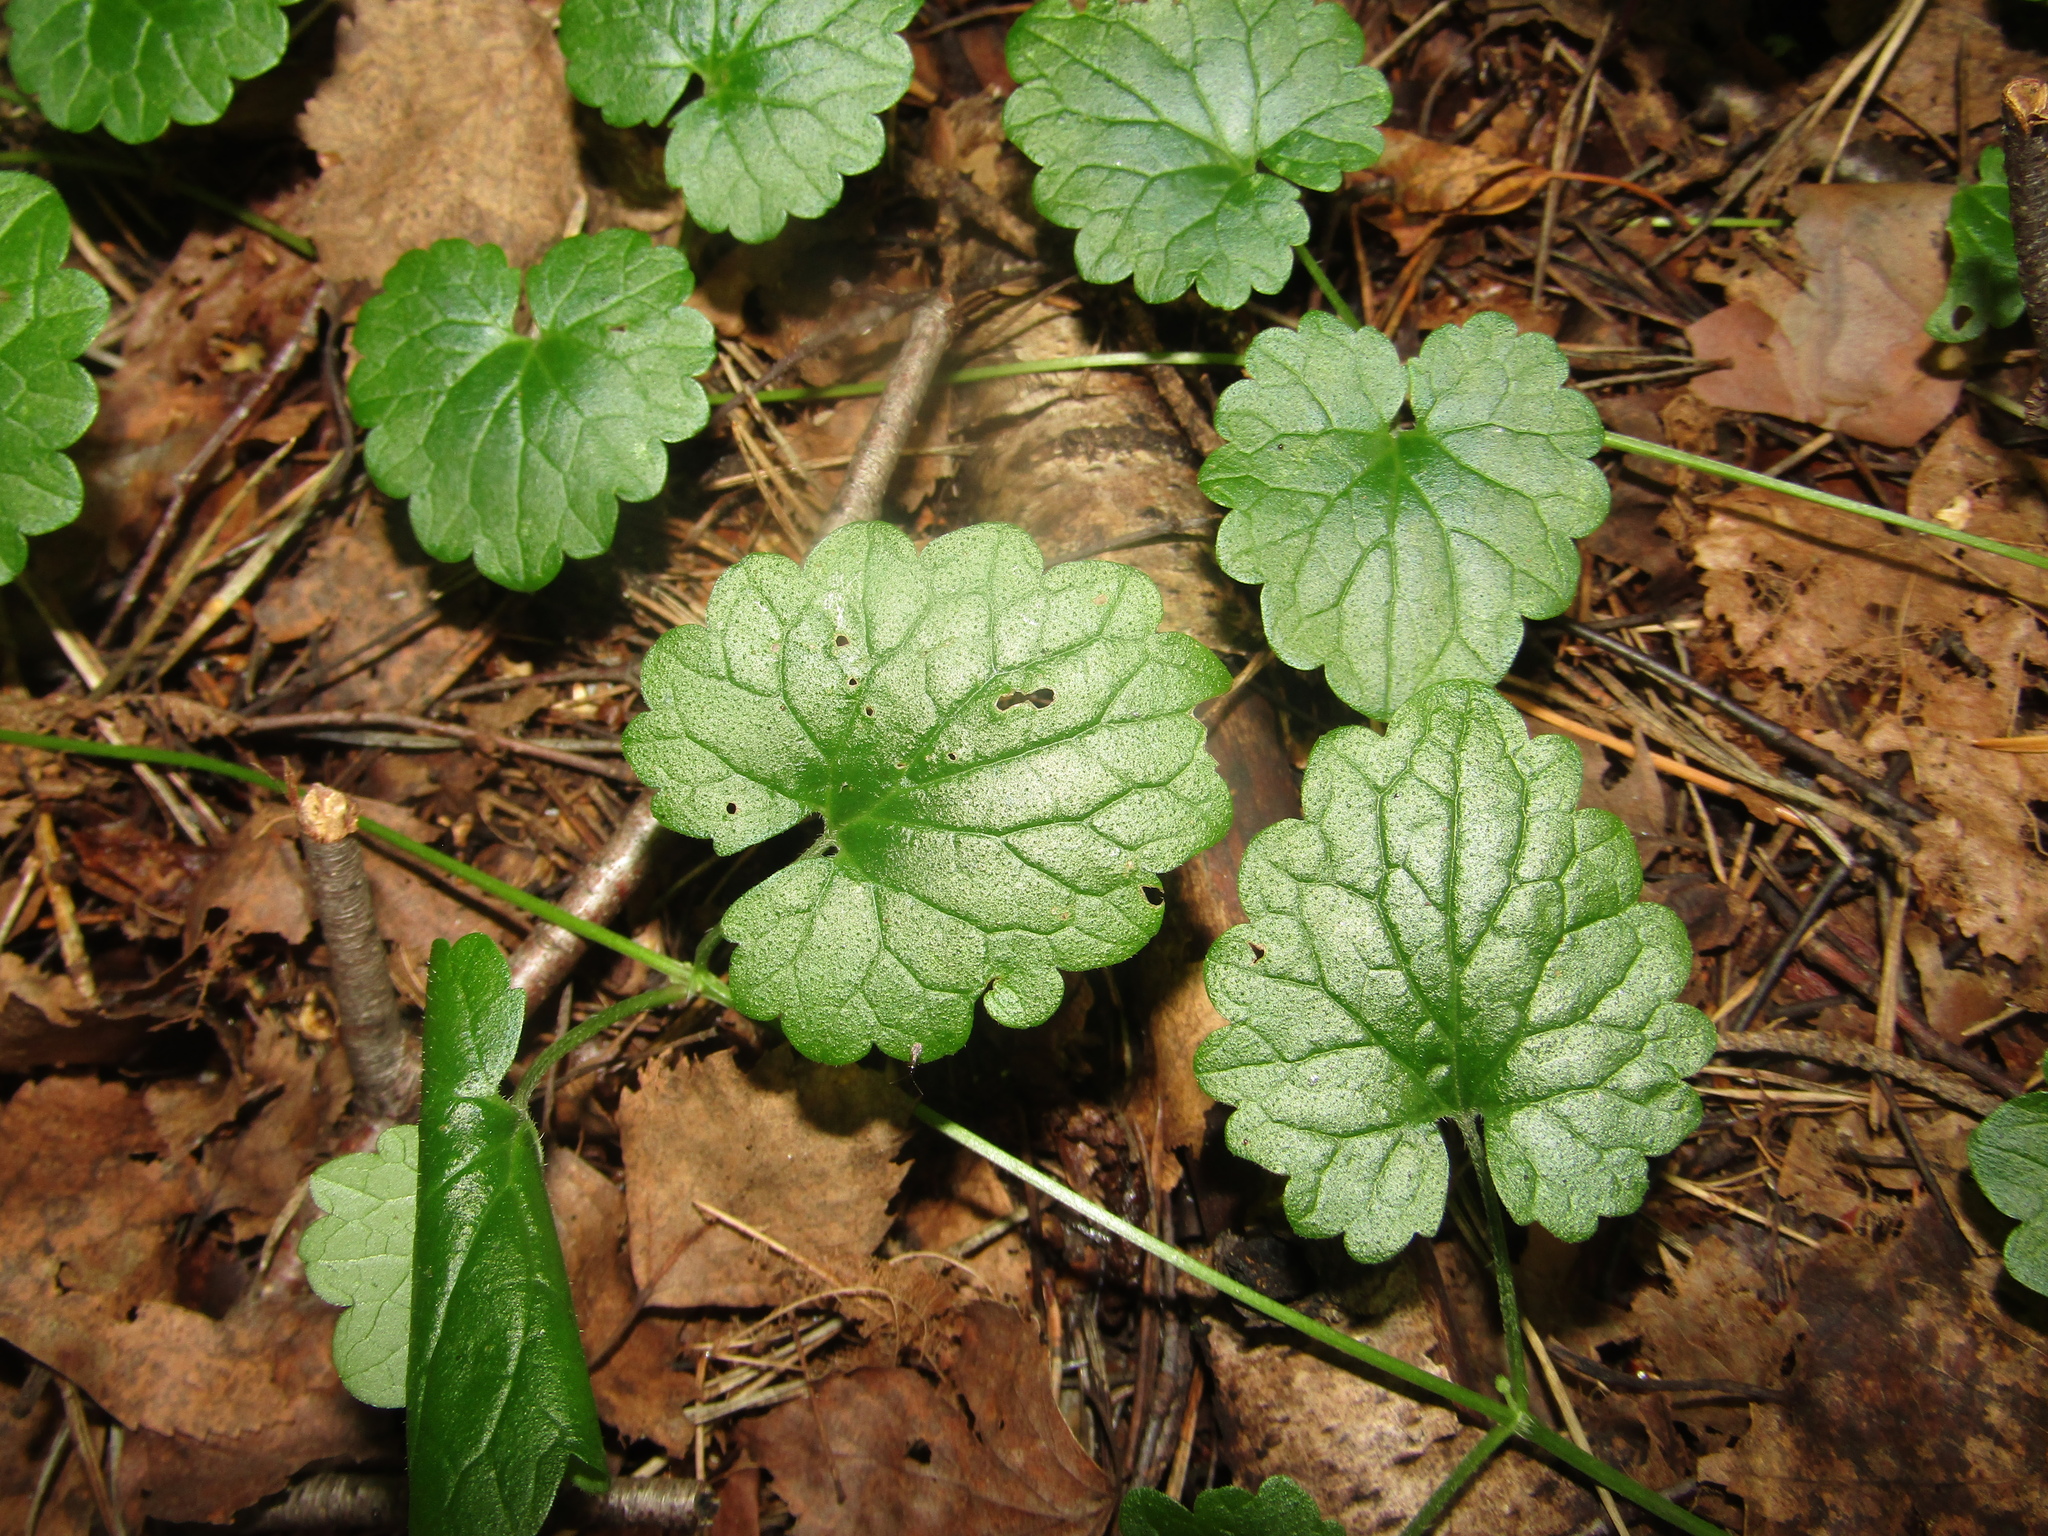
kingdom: Plantae
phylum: Tracheophyta
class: Magnoliopsida
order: Lamiales
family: Lamiaceae
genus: Glechoma
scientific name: Glechoma hederacea
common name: Ground ivy
